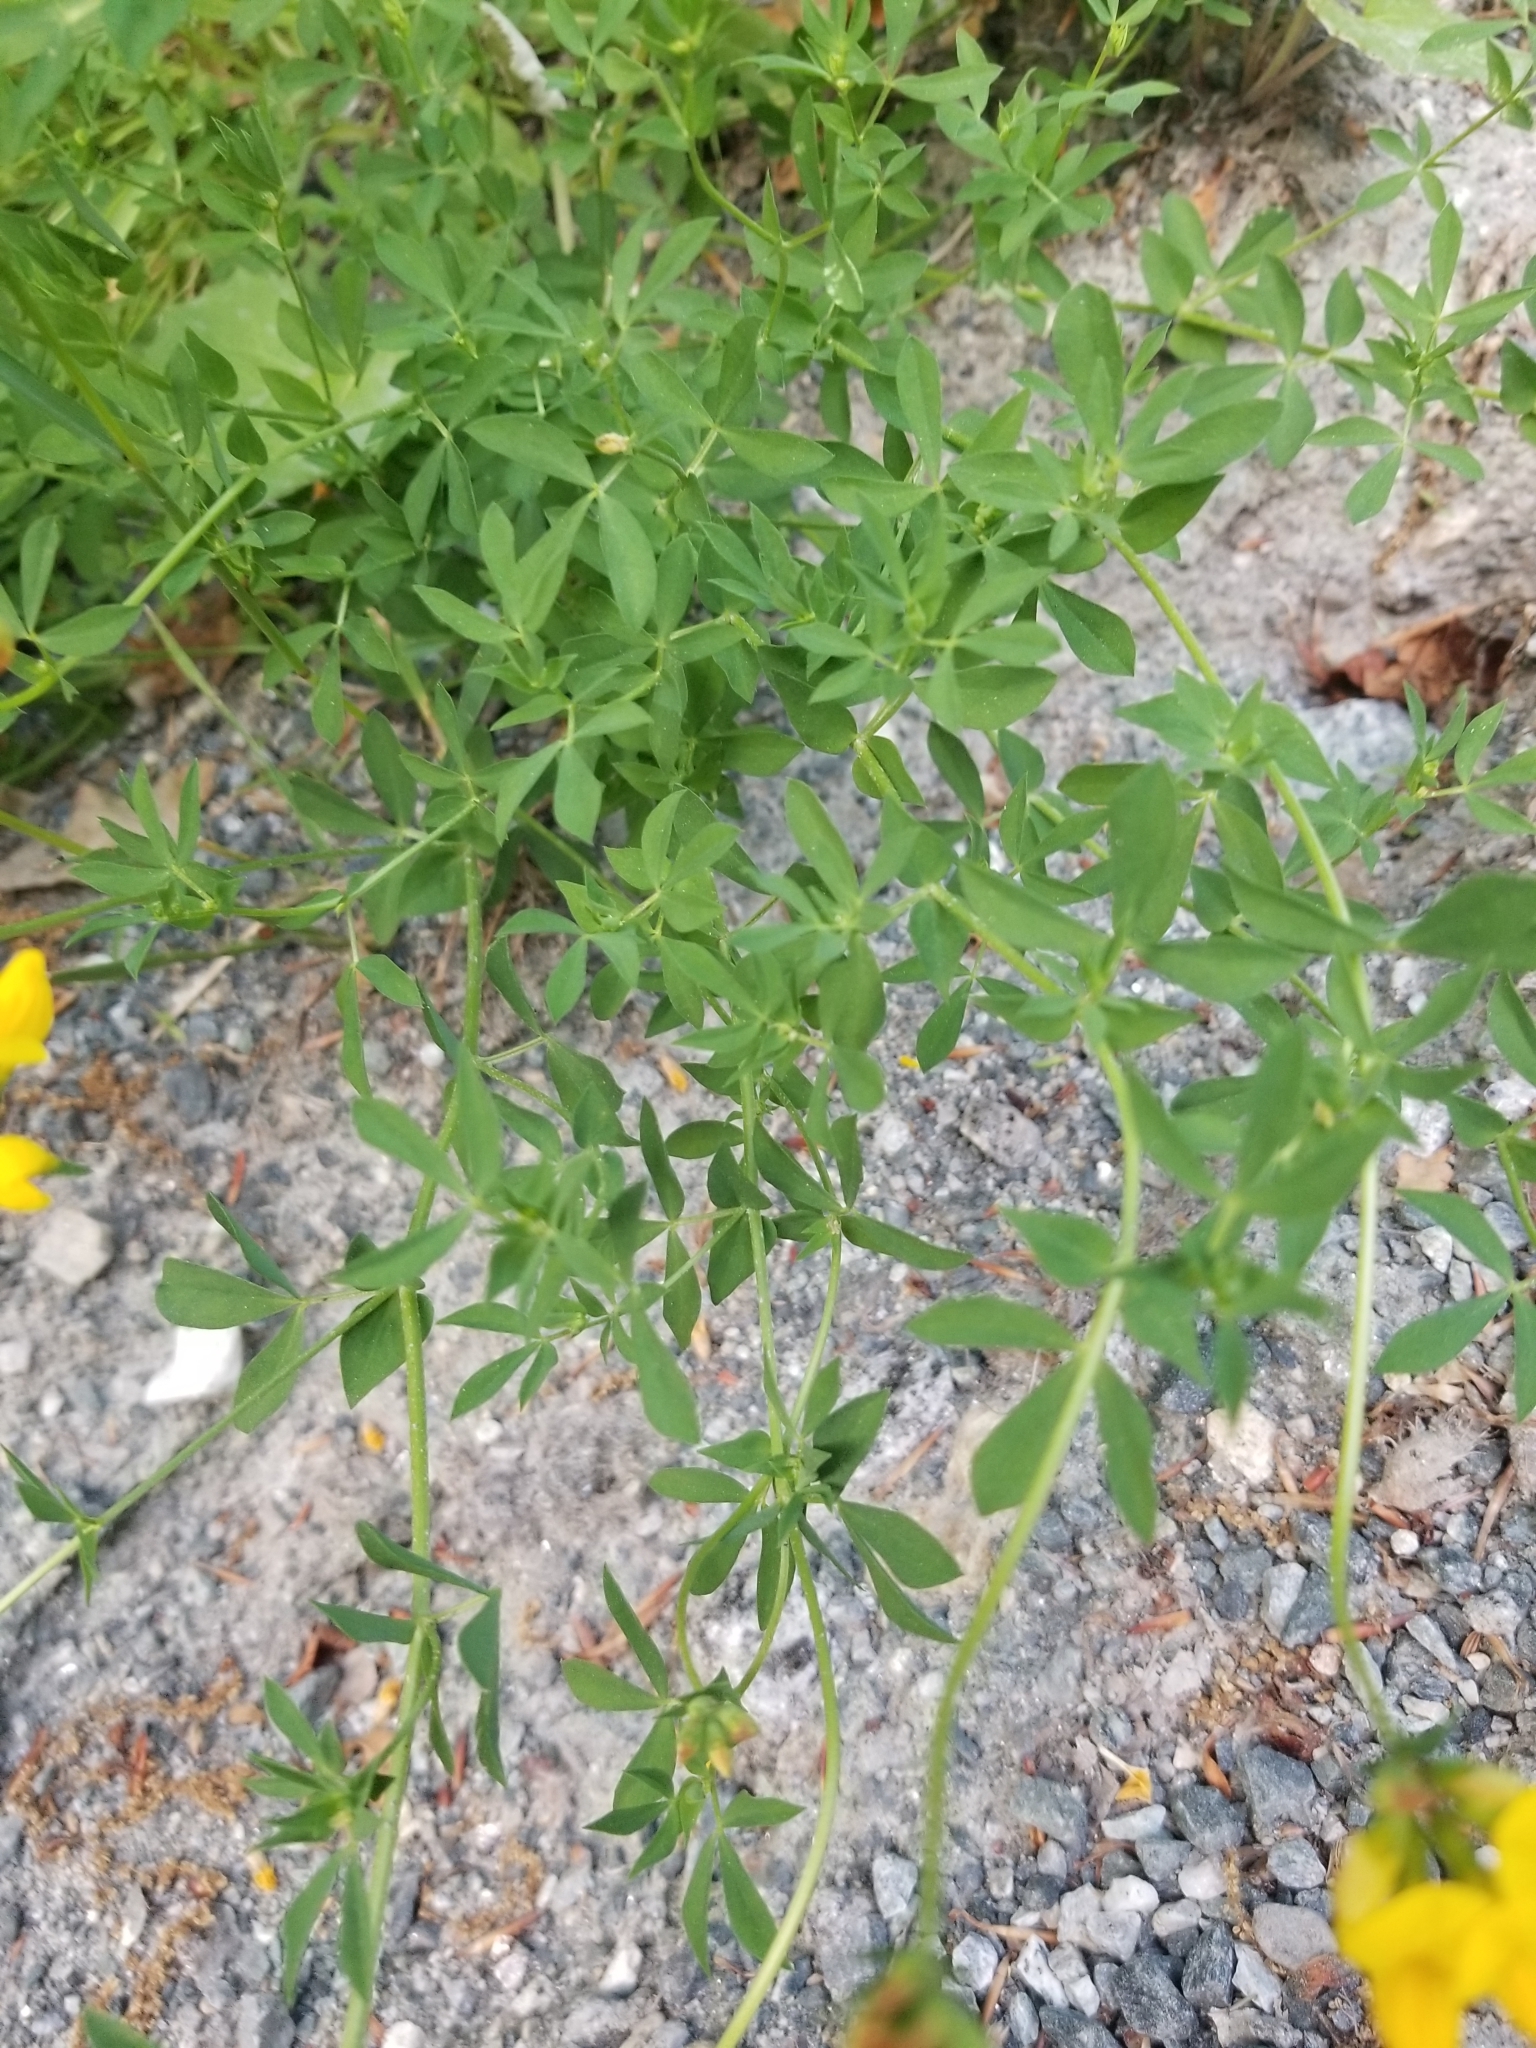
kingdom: Plantae
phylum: Tracheophyta
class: Magnoliopsida
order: Fabales
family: Fabaceae
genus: Lotus
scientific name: Lotus corniculatus
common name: Common bird's-foot-trefoil
